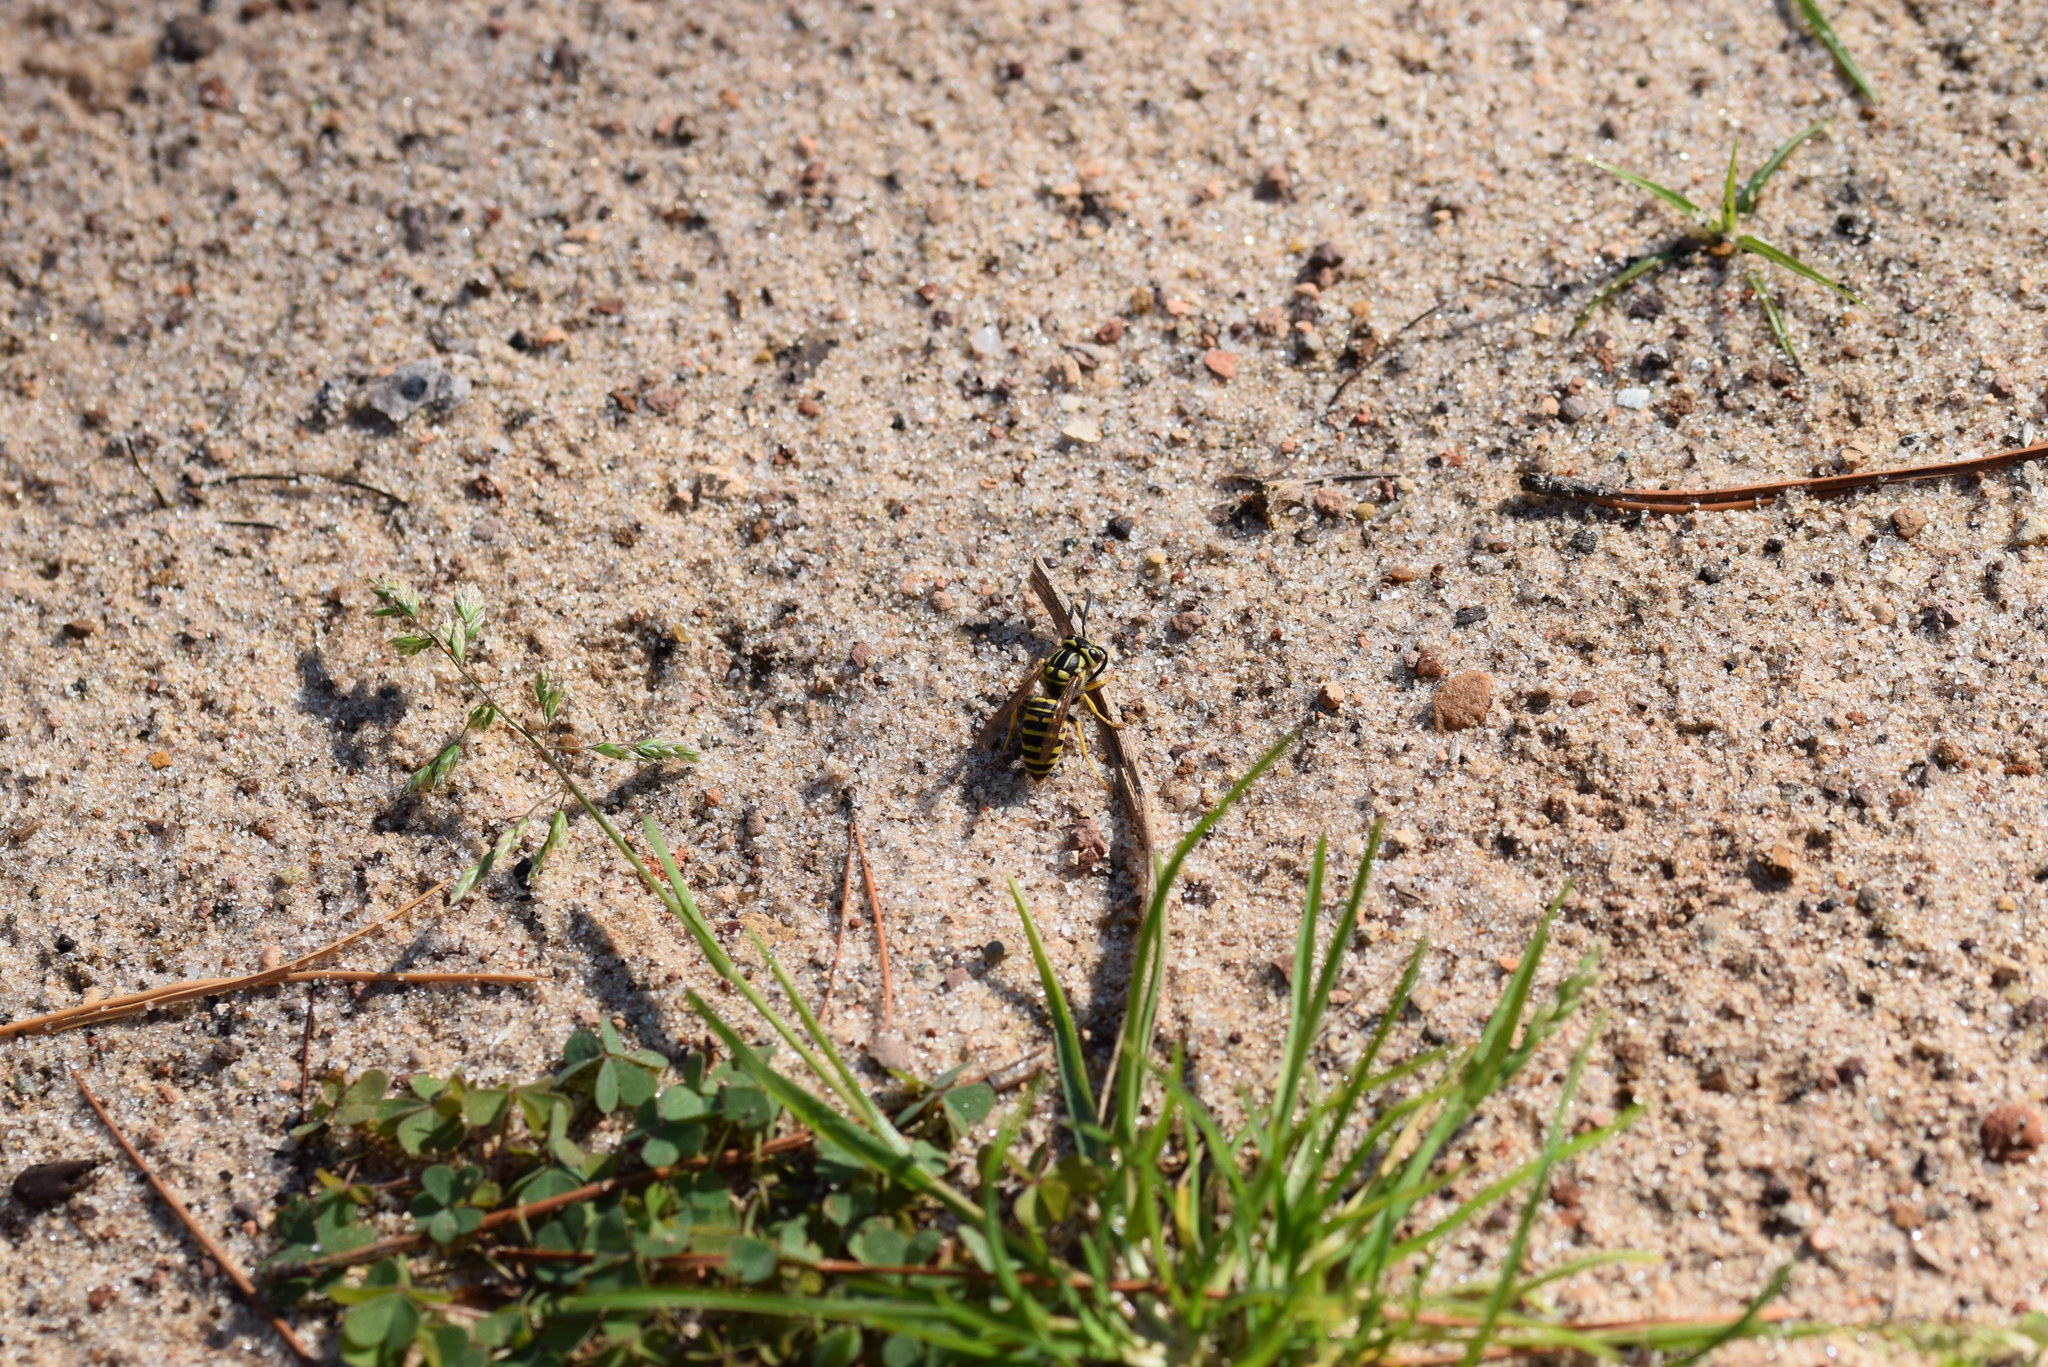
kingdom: Animalia
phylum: Arthropoda
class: Insecta
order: Hymenoptera
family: Vespidae
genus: Vespula
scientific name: Vespula squamosa
